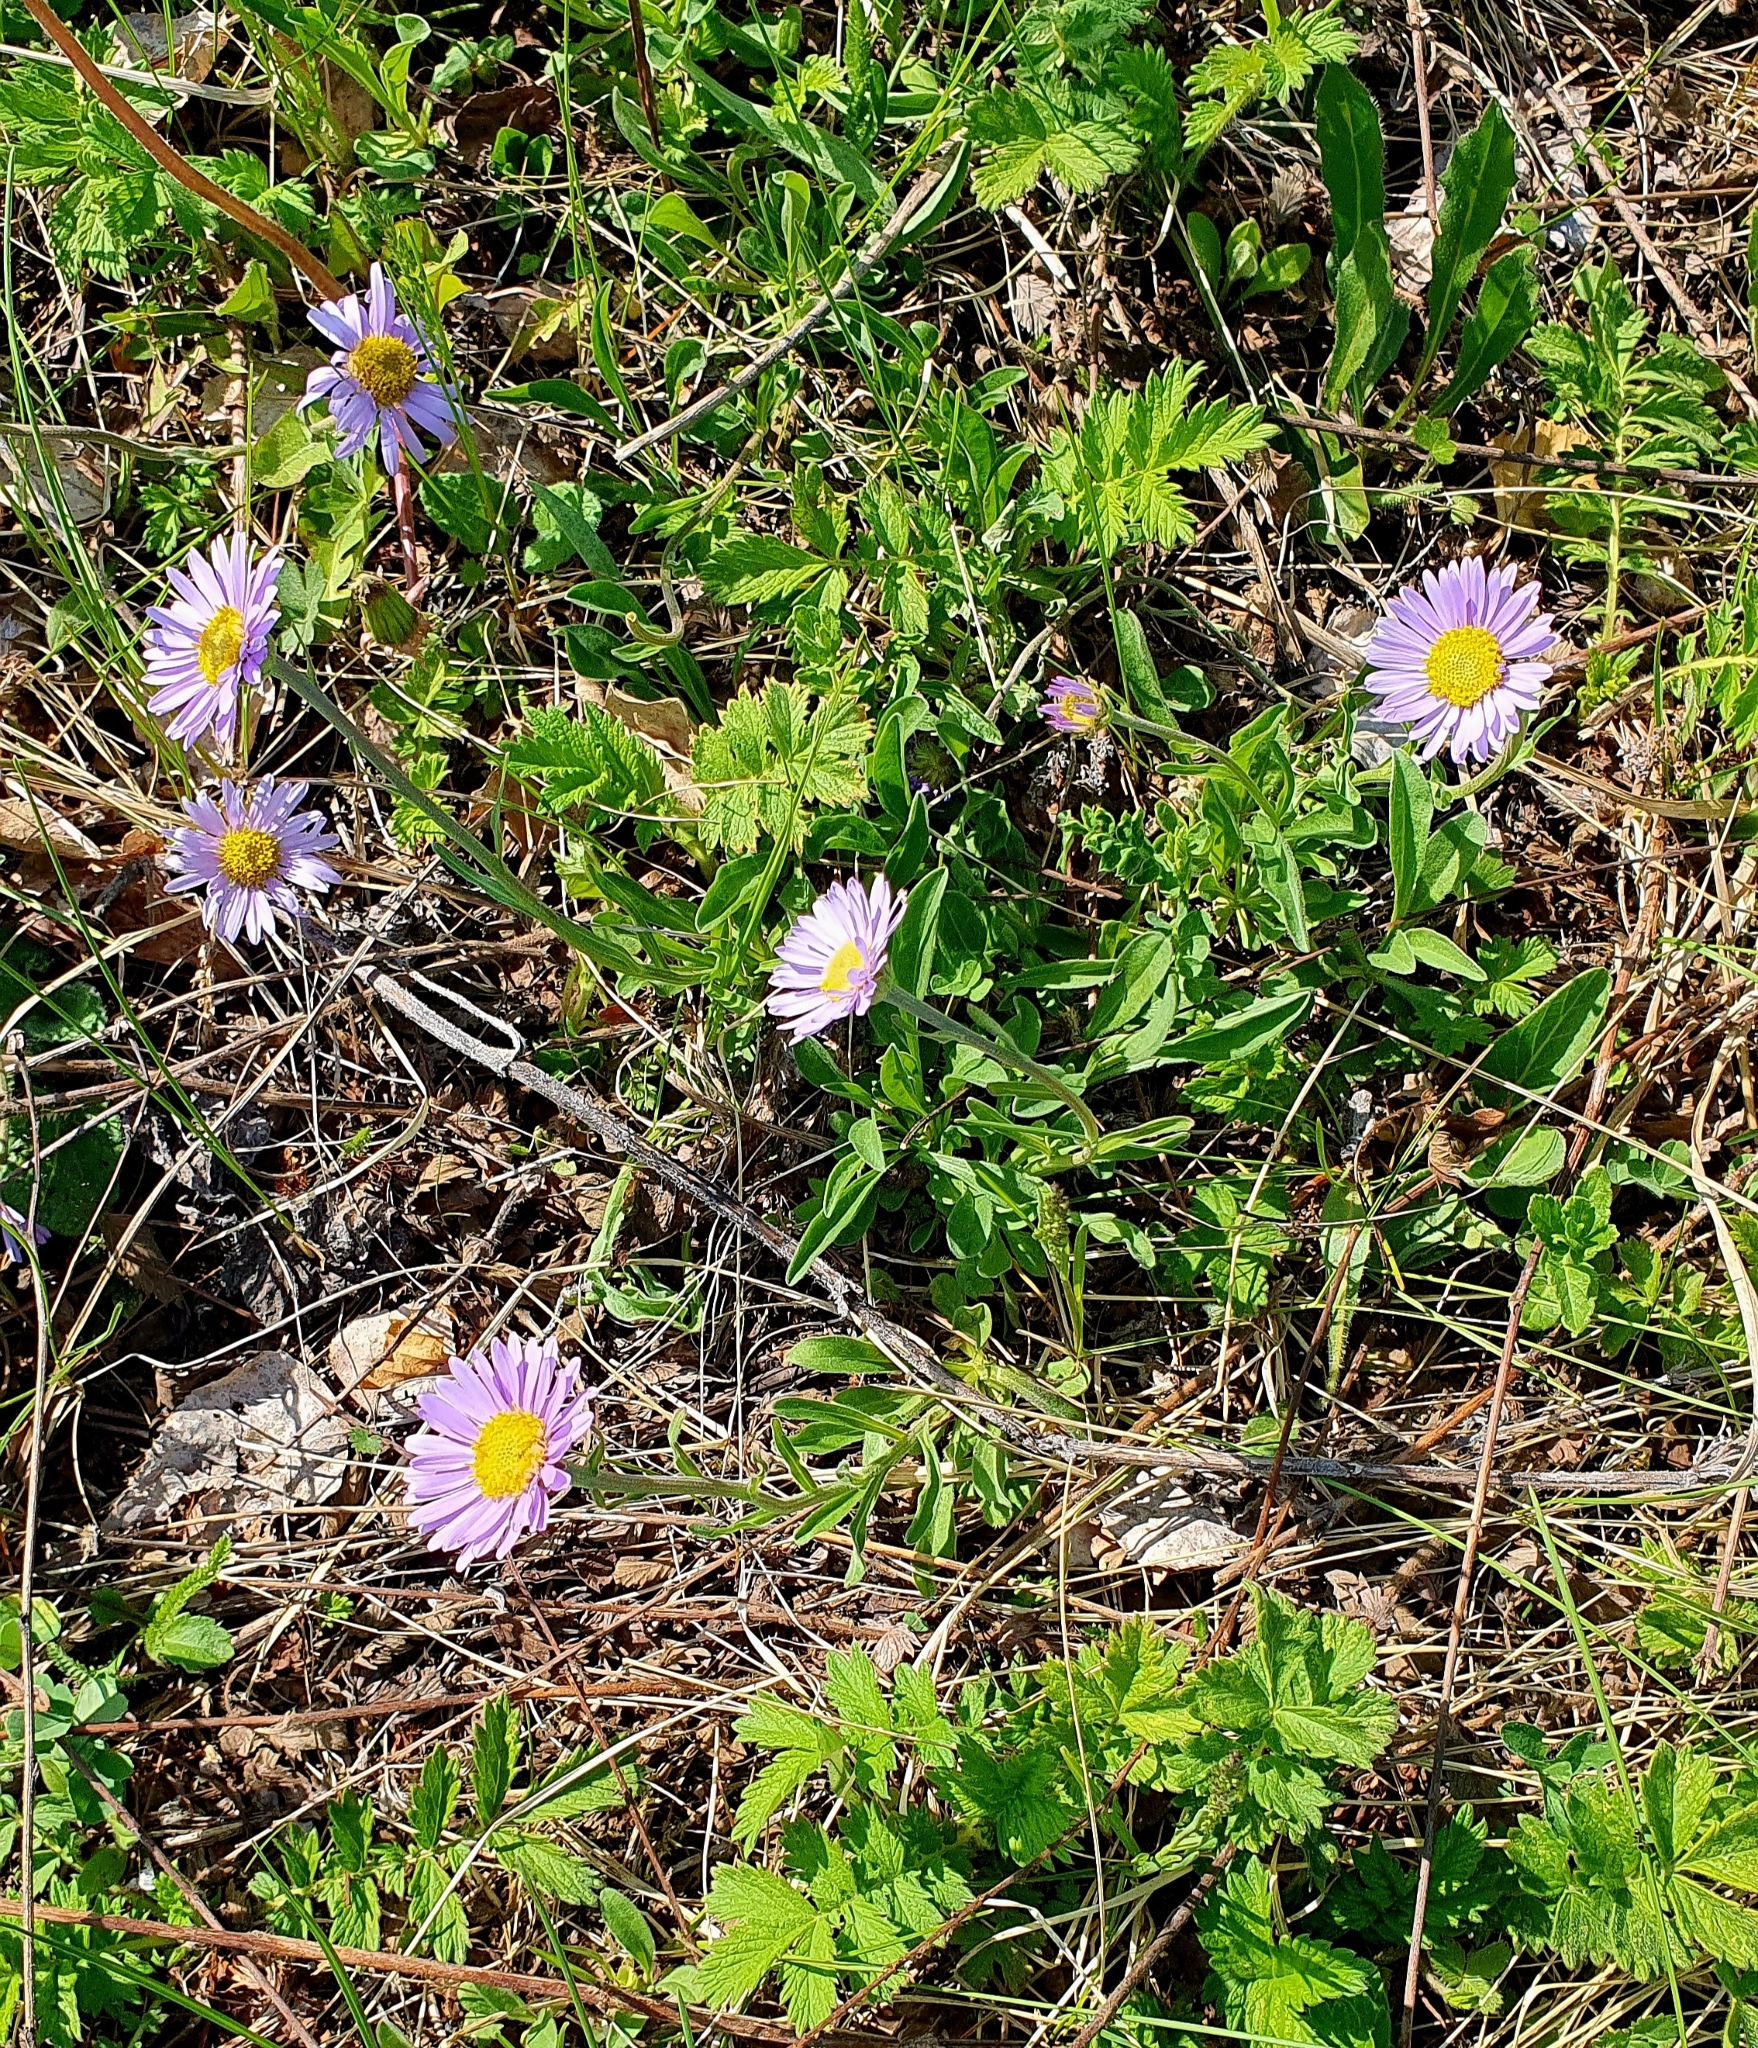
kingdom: Plantae
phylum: Tracheophyta
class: Magnoliopsida
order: Asterales
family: Asteraceae
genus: Aster
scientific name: Aster alpinus
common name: Alpine aster
